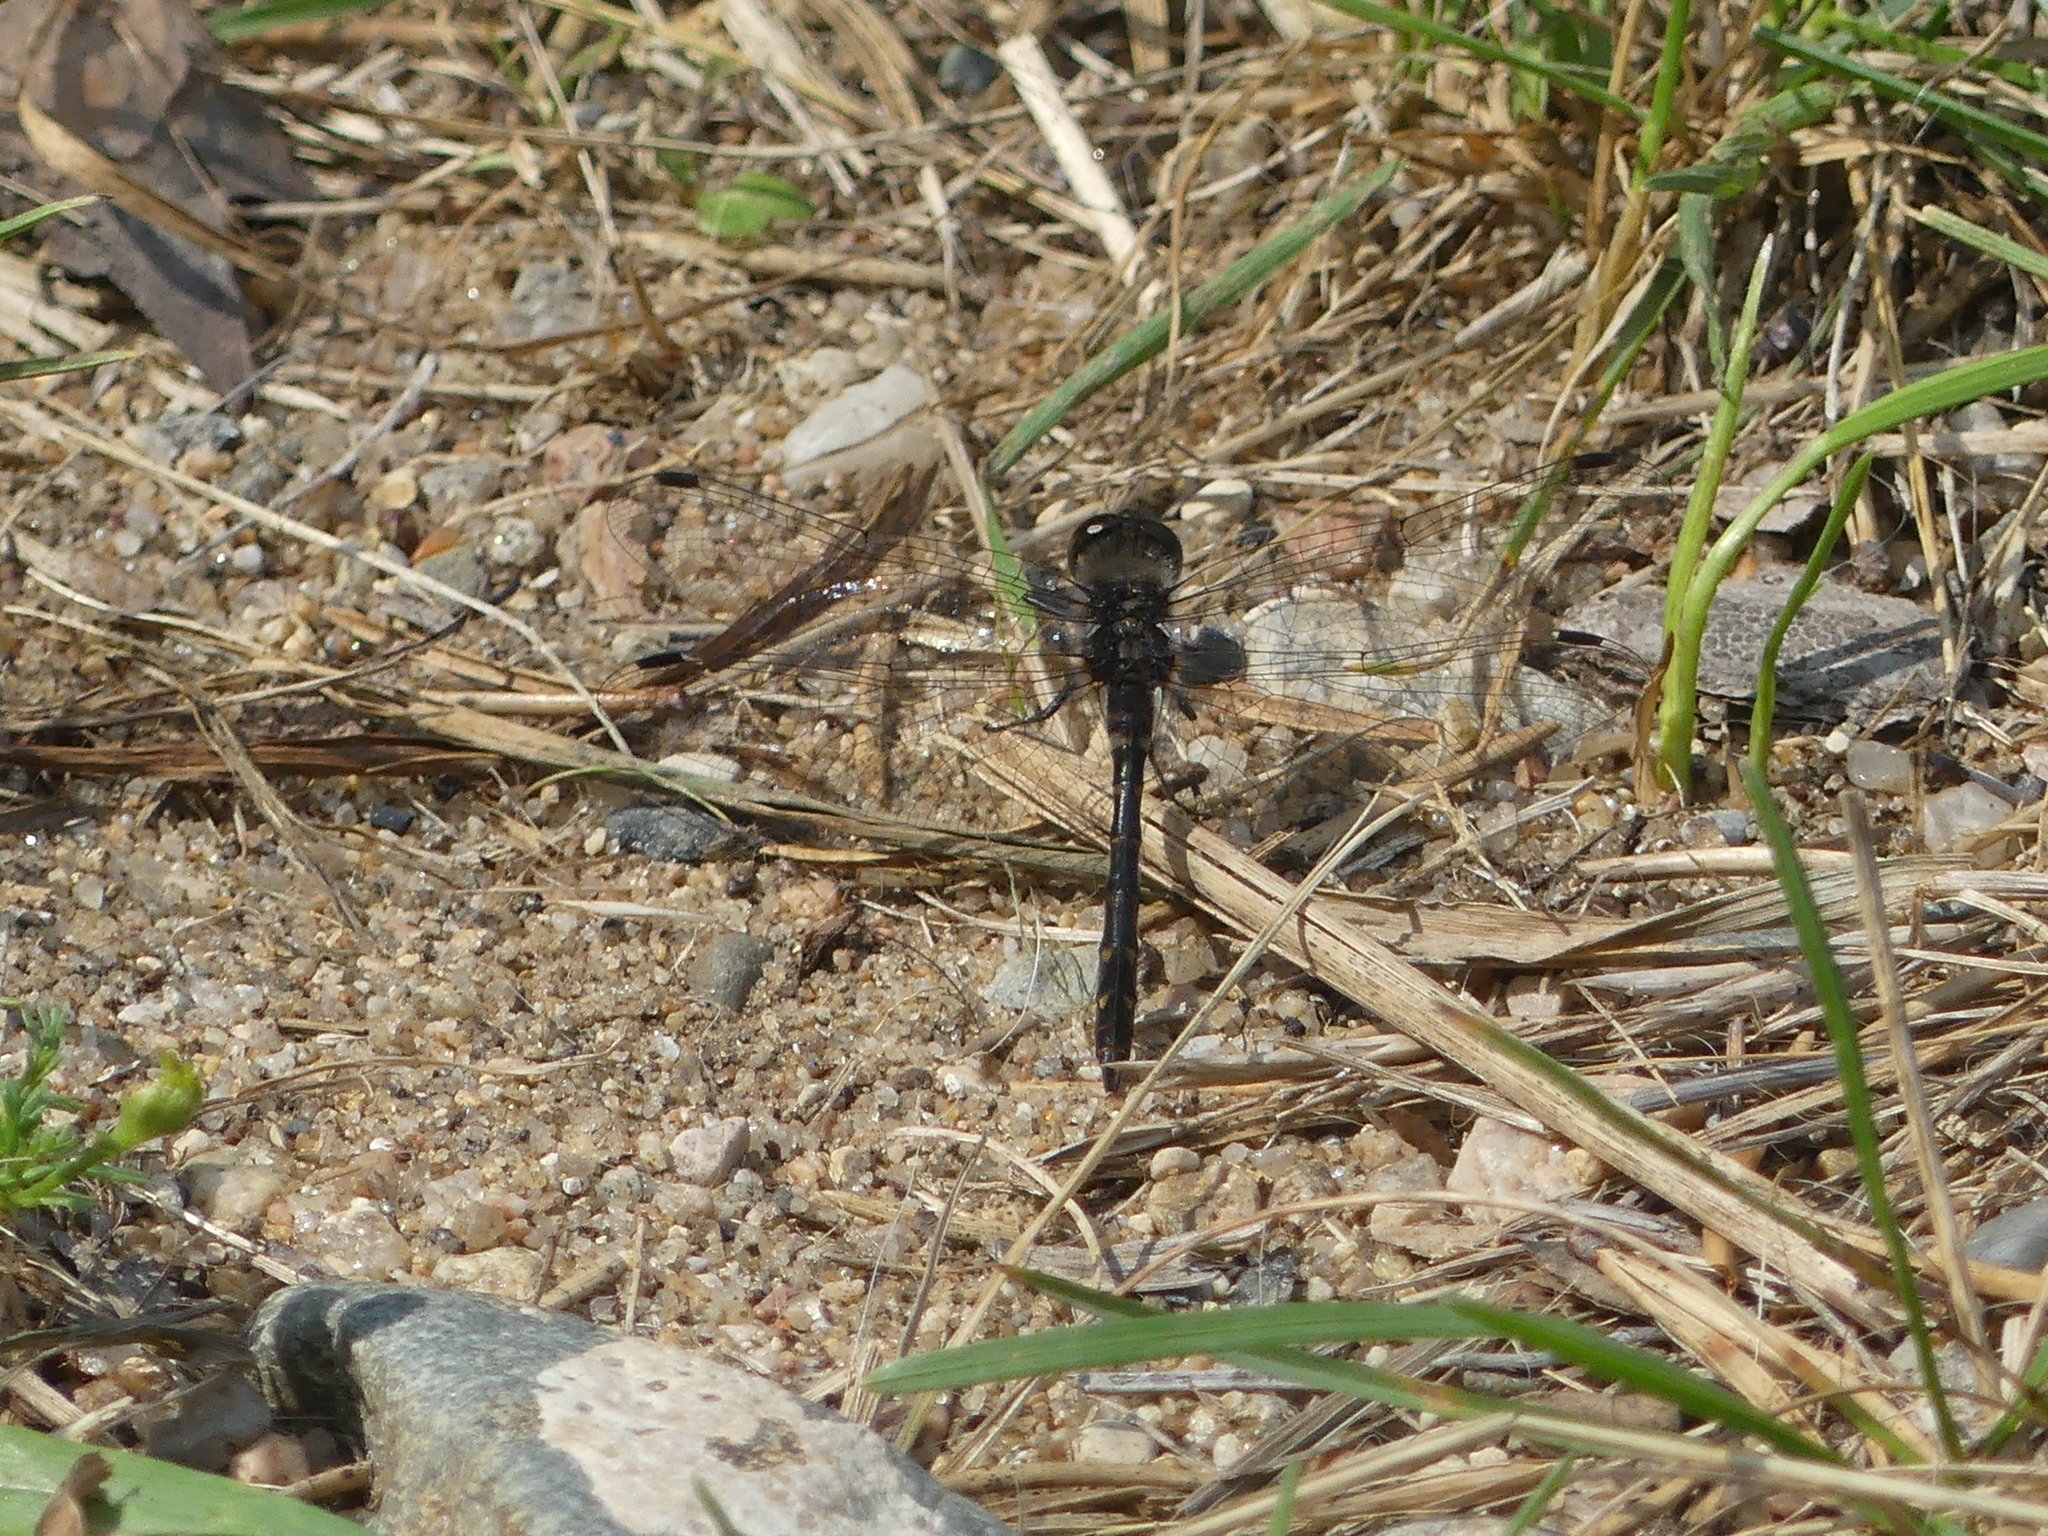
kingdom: Animalia
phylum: Arthropoda
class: Insecta
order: Odonata
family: Libellulidae
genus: Sympetrum
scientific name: Sympetrum danae
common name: Black darter
